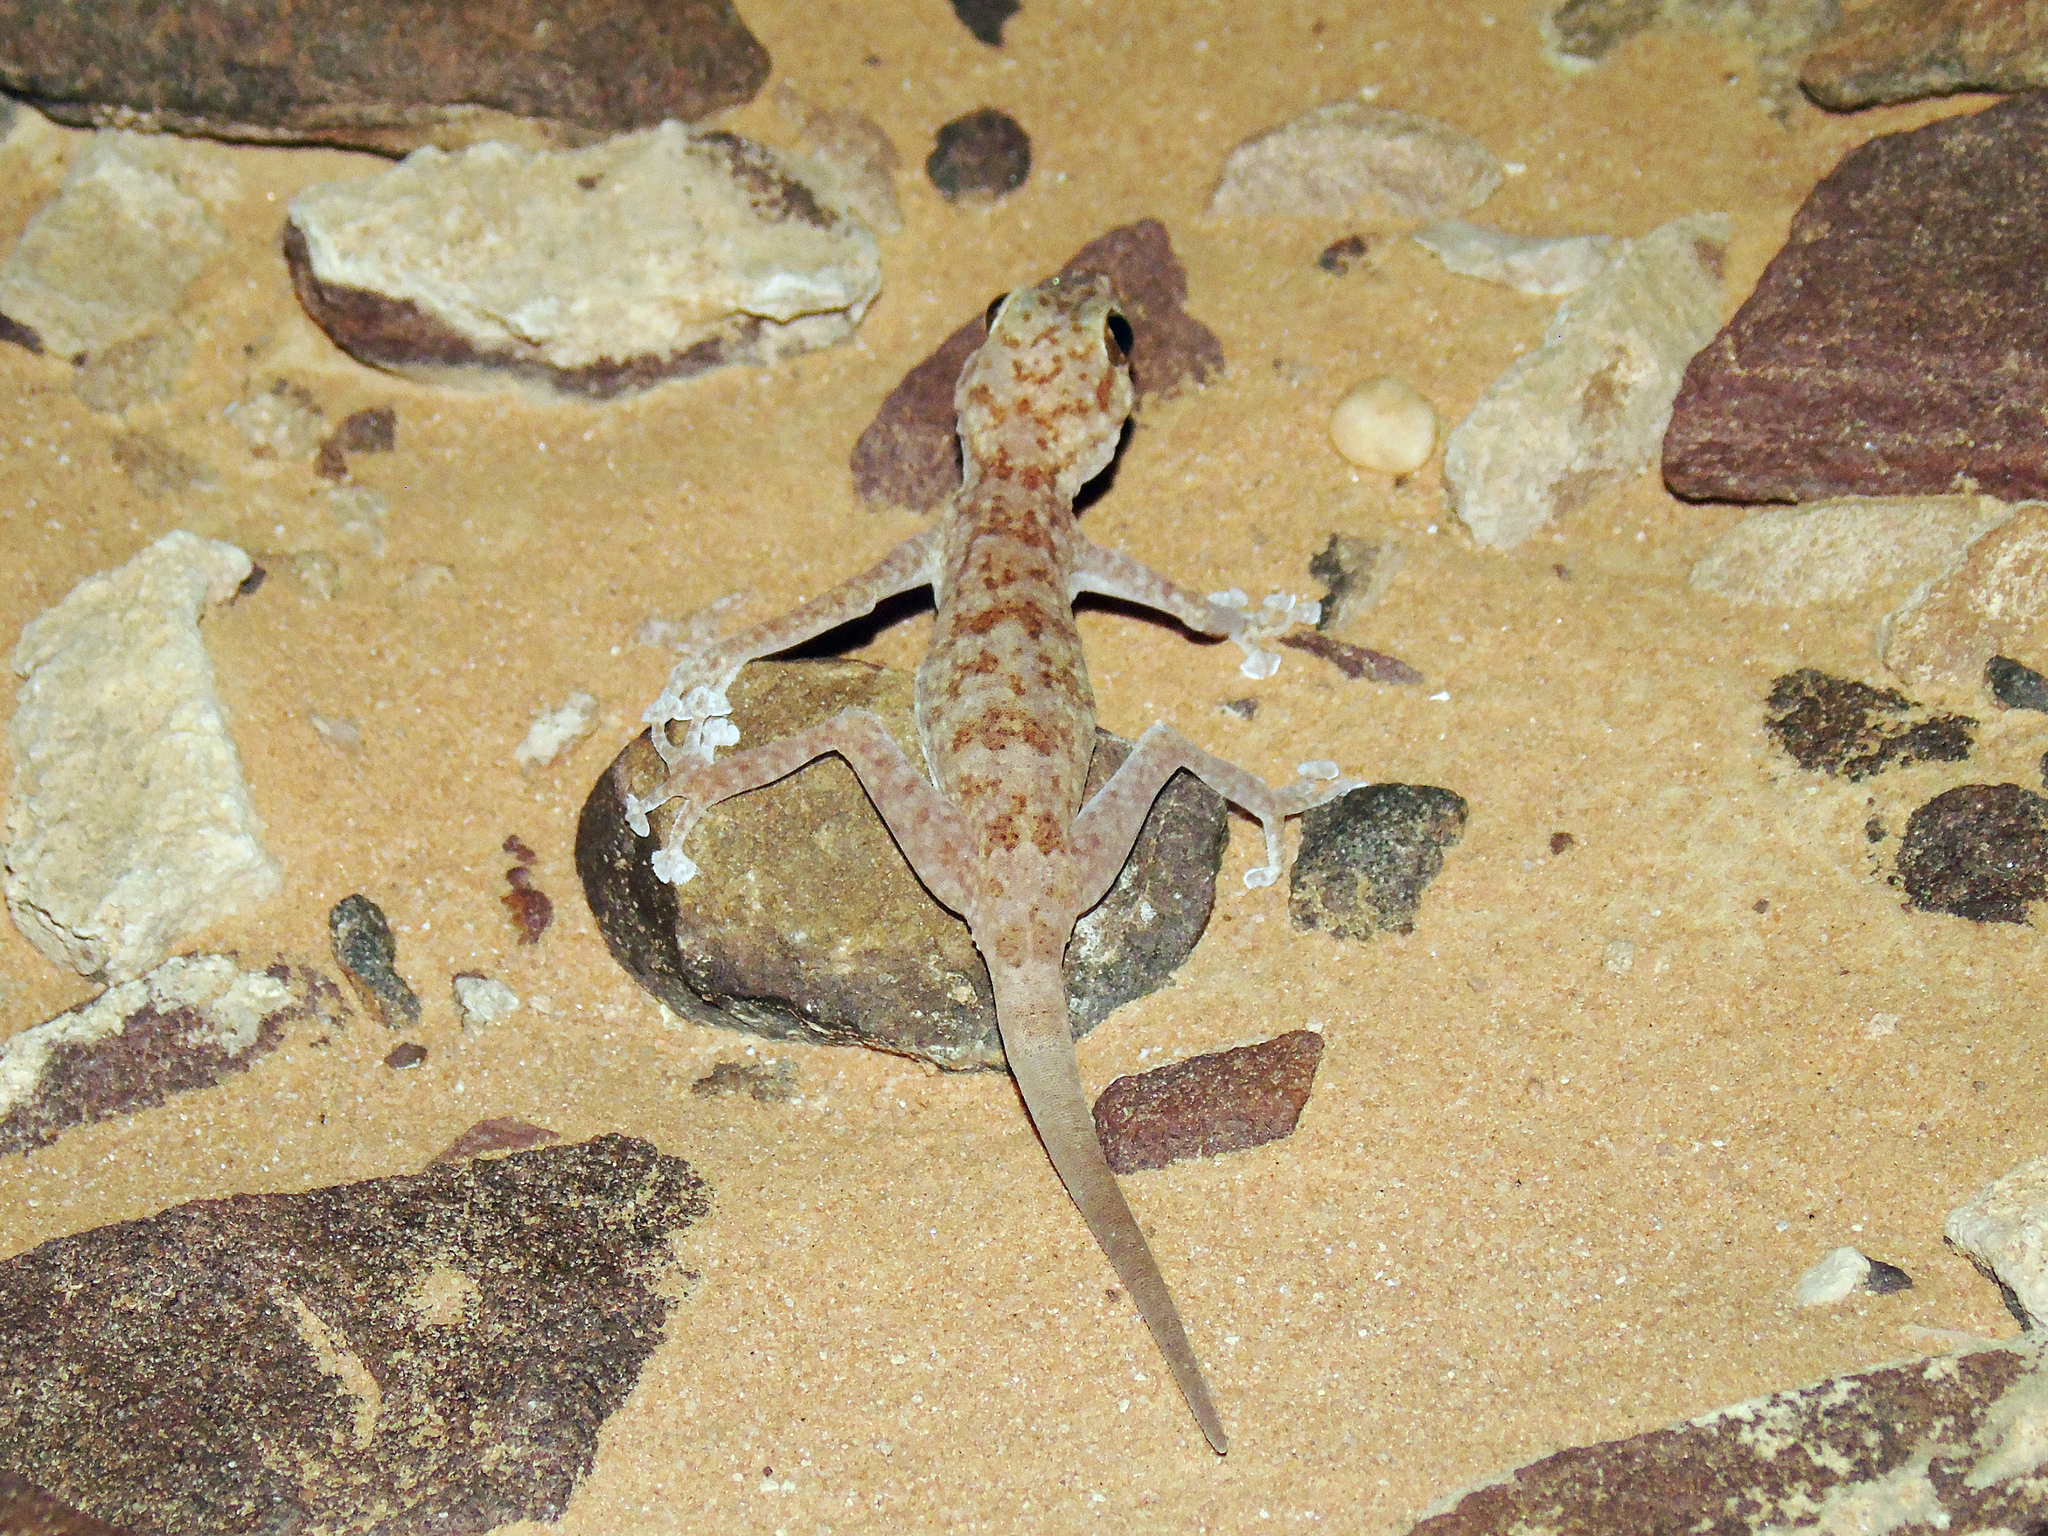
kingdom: Animalia
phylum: Chordata
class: Squamata
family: Phyllodactylidae
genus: Ptyodactylus
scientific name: Ptyodactylus hasselquistii
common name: Hasselquist’s fan-footed gecko
